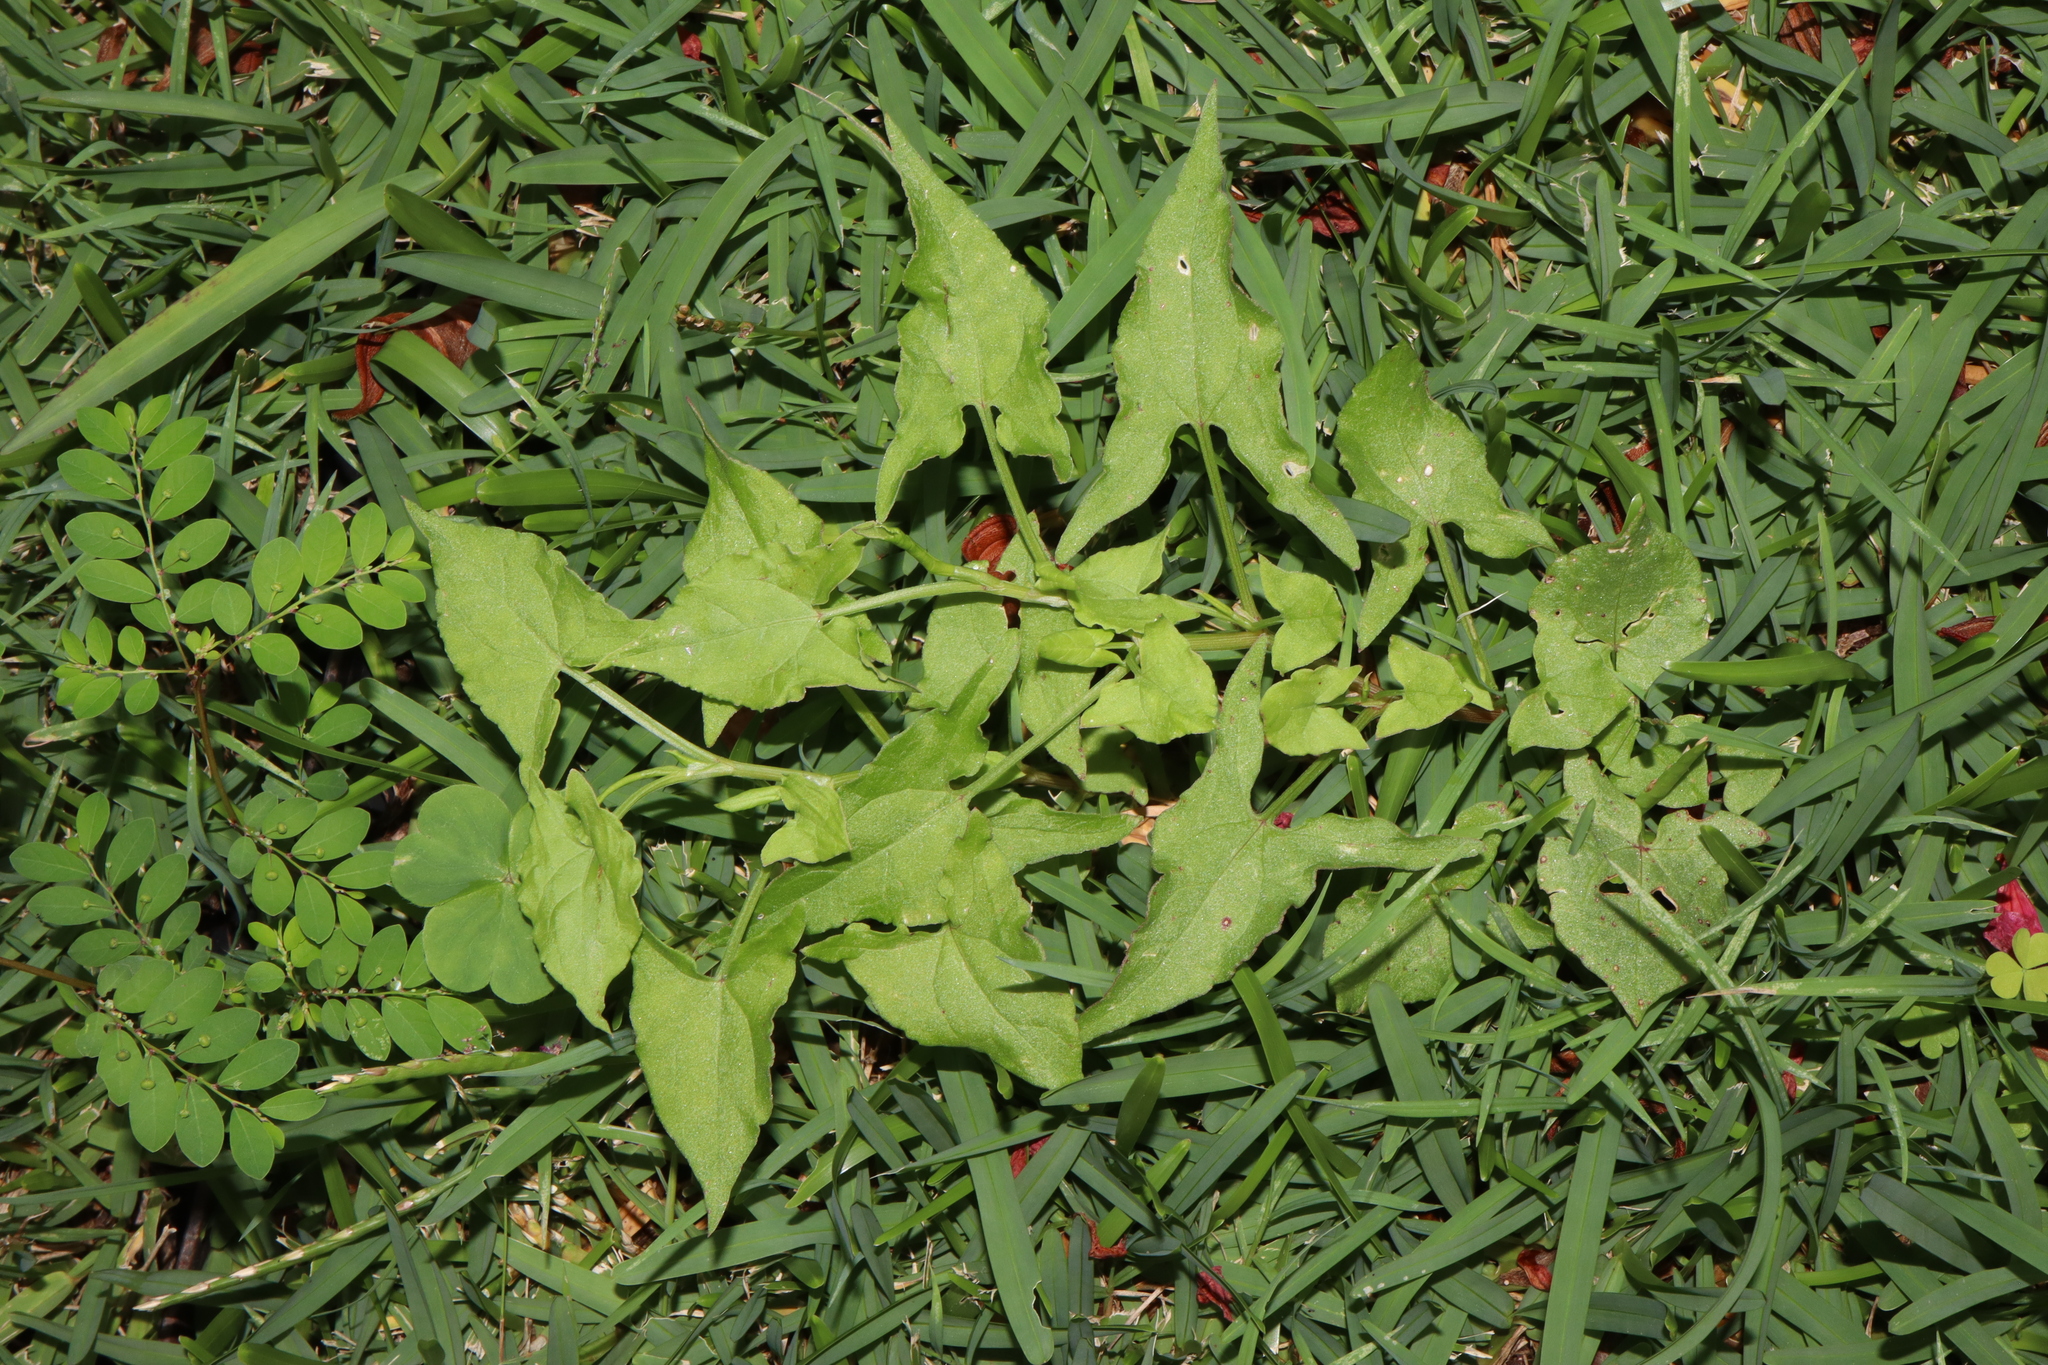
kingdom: Plantae
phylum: Tracheophyta
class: Magnoliopsida
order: Caryophyllales
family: Polygonaceae
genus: Rumex
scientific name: Rumex sagittatus
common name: Climbing dock
